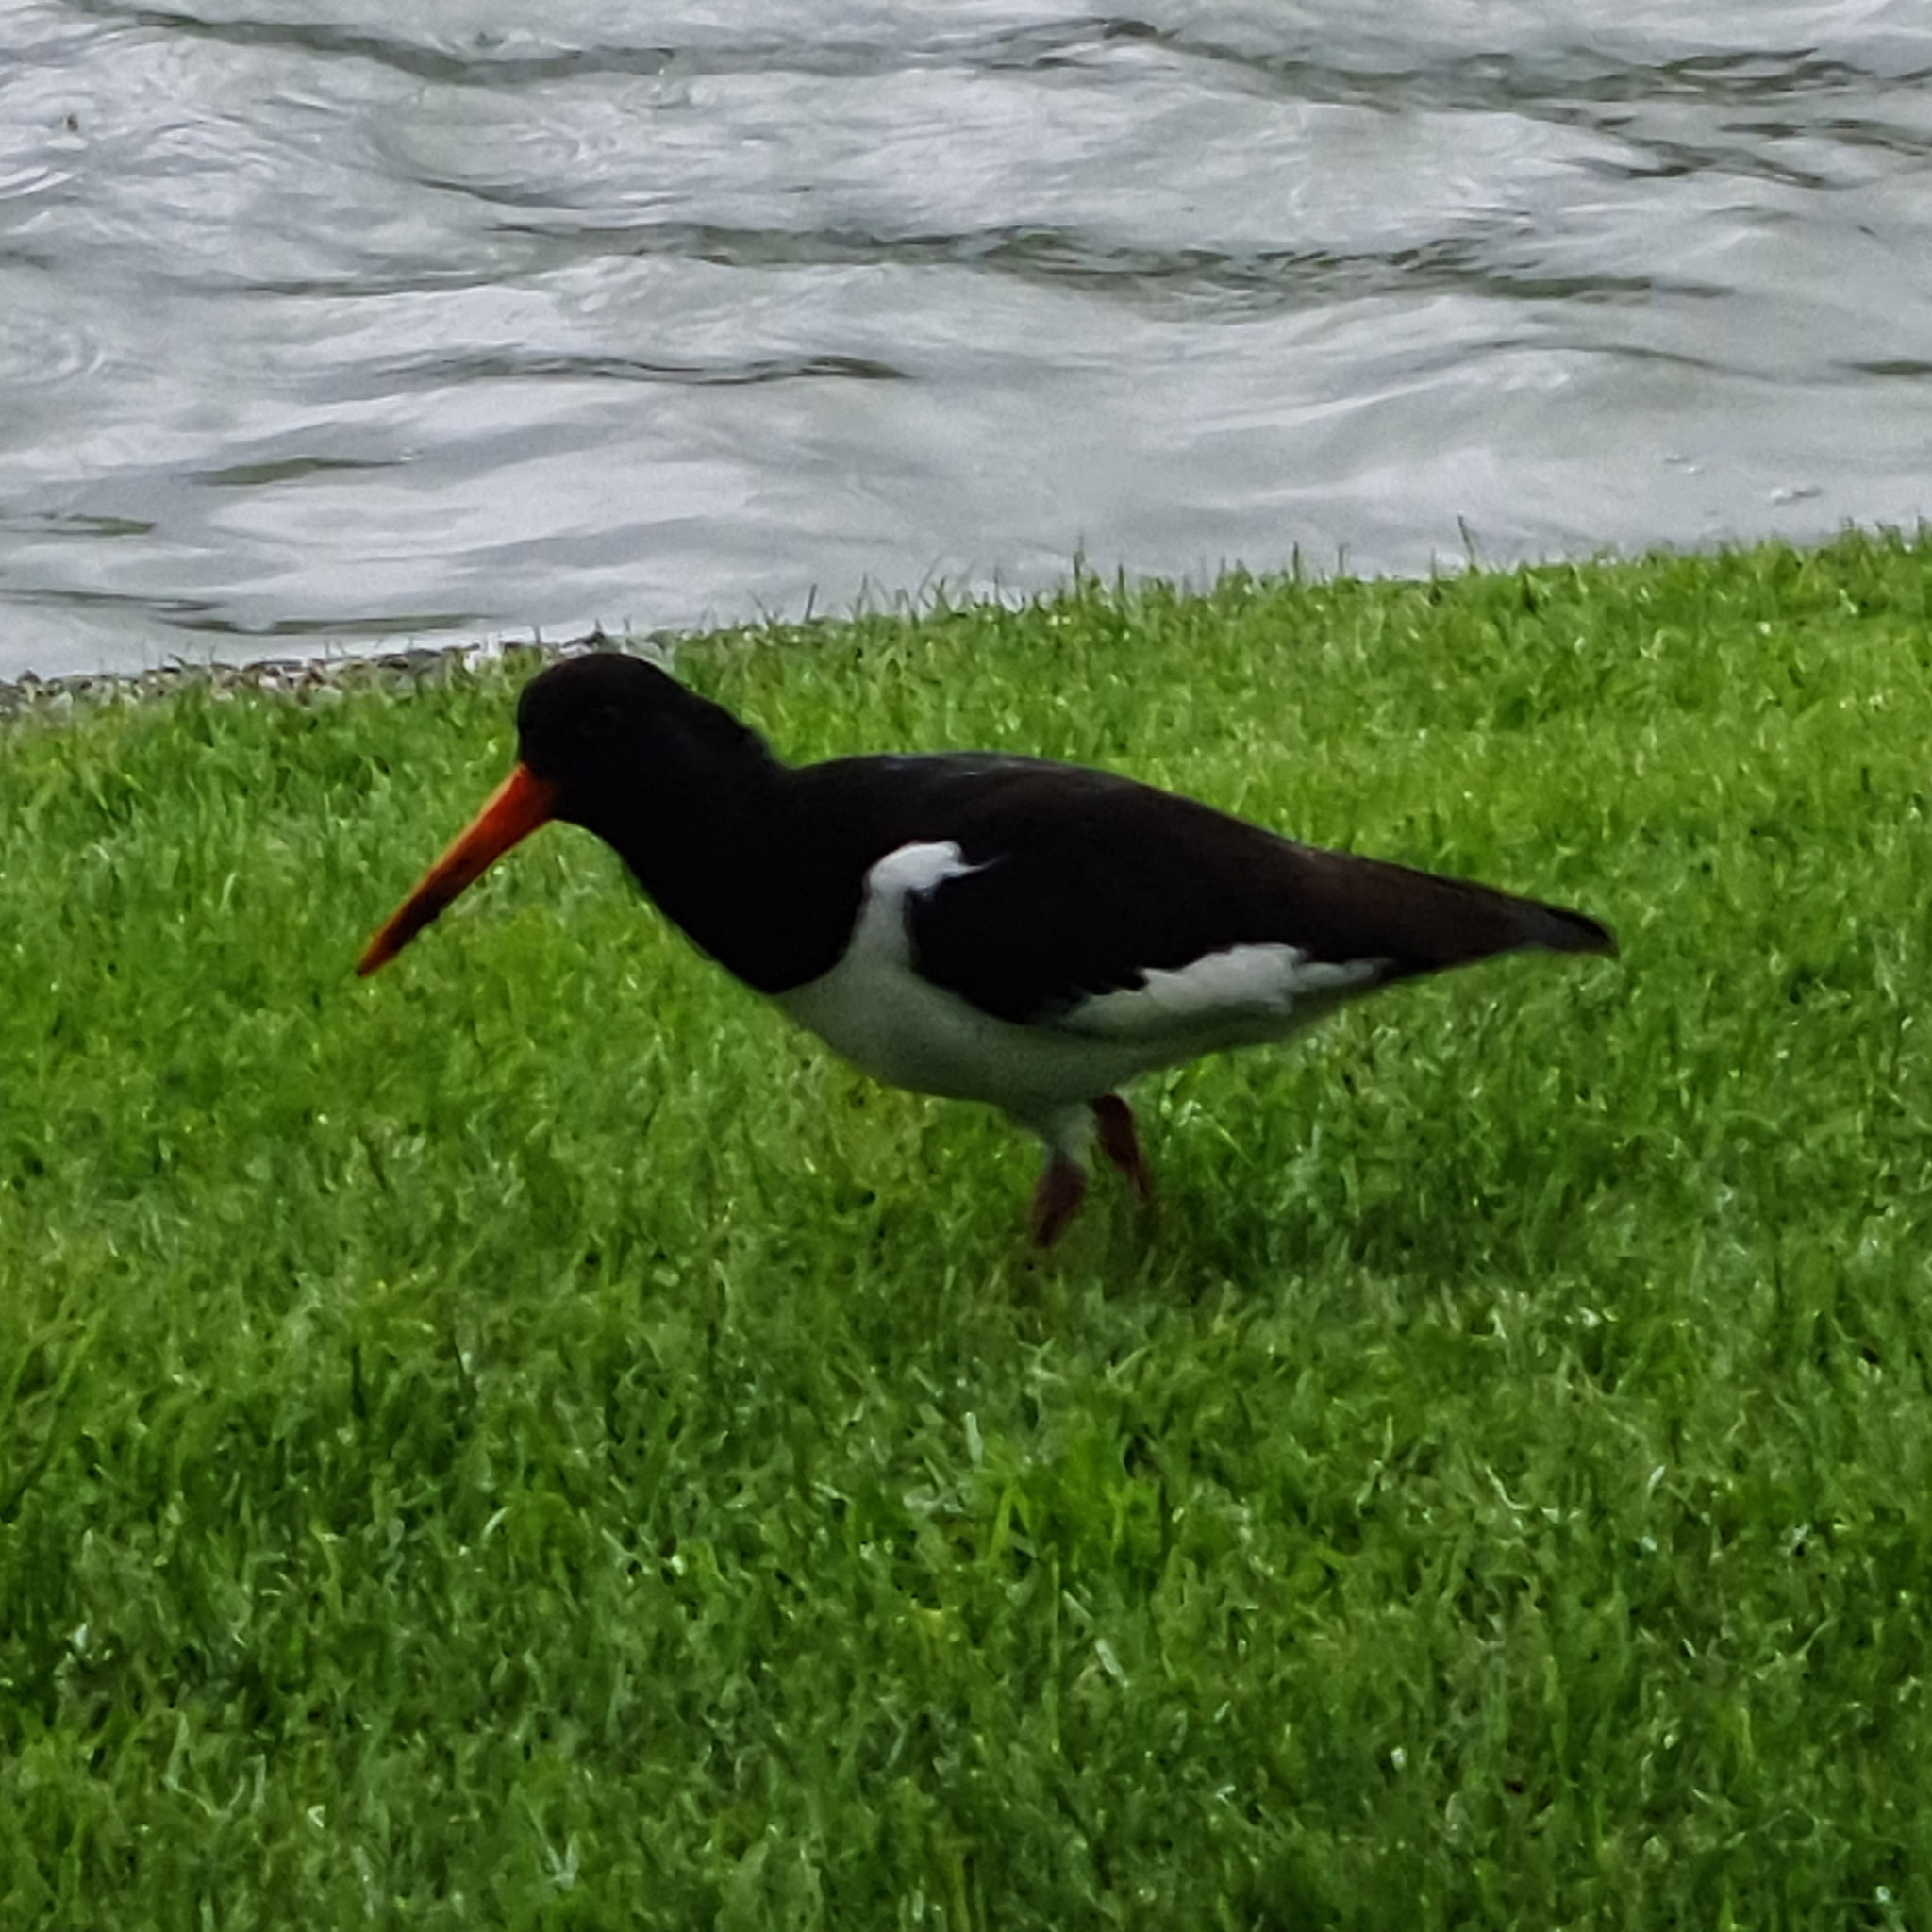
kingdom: Animalia
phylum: Chordata
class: Aves
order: Charadriiformes
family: Haematopodidae
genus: Haematopus
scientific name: Haematopus ostralegus
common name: Eurasian oystercatcher
